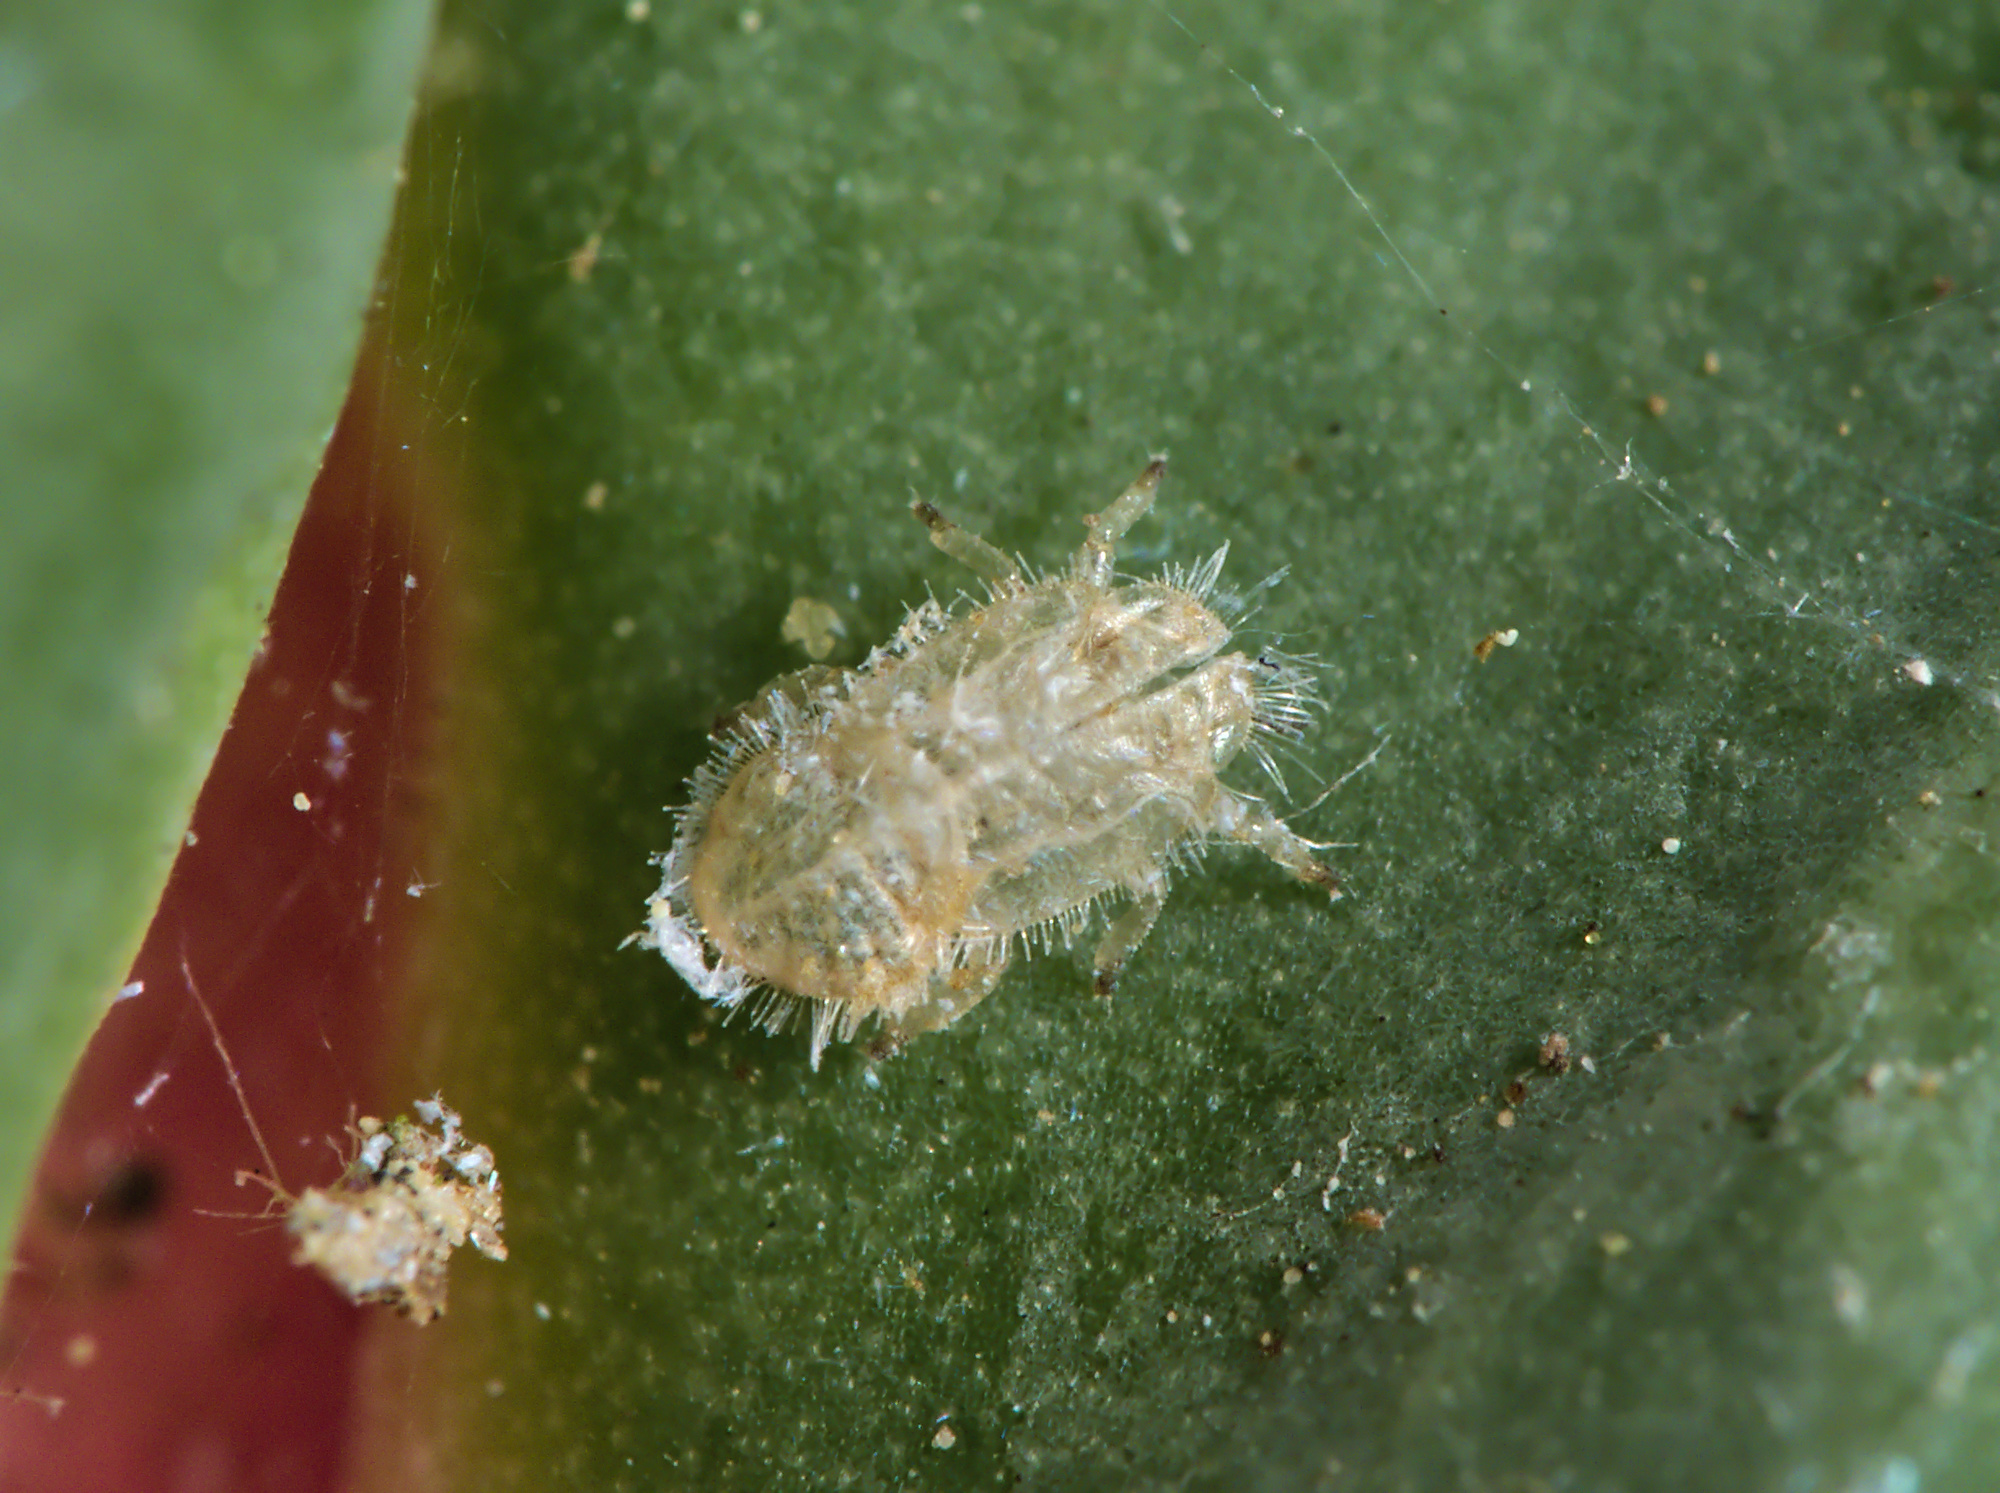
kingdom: Animalia
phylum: Arthropoda
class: Insecta
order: Hemiptera
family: Triozidae
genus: Trioza
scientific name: Trioza centranthi
